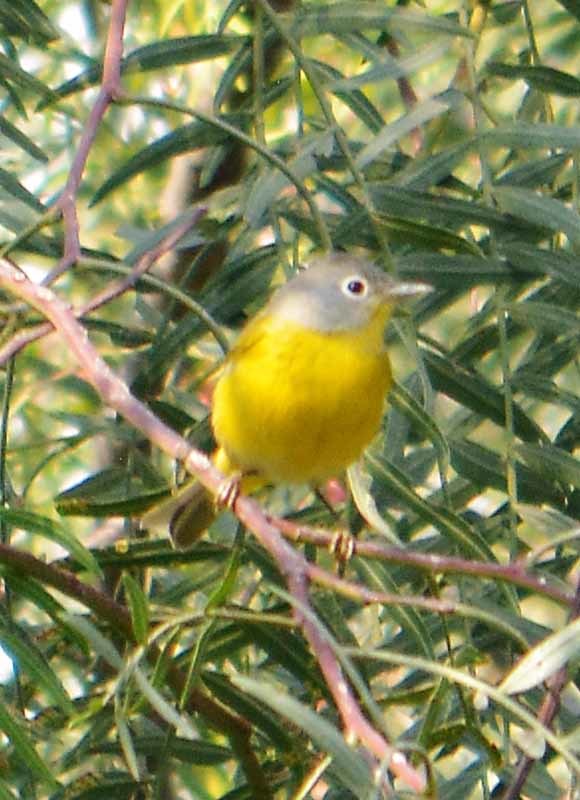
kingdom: Animalia
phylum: Chordata
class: Aves
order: Passeriformes
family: Parulidae
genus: Leiothlypis
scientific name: Leiothlypis ruficapilla
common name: Nashville warbler
